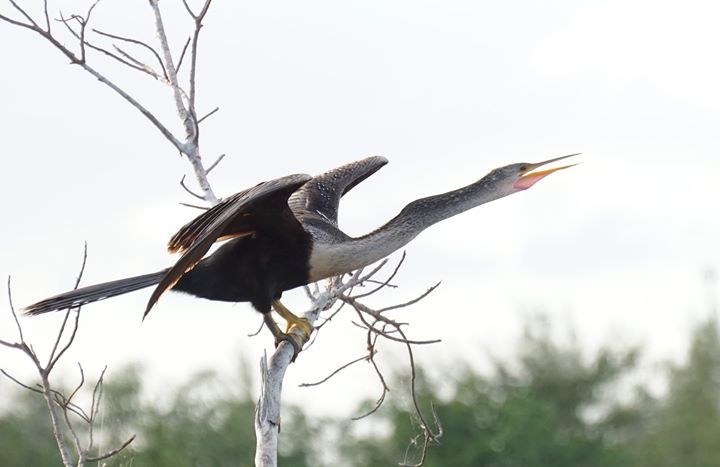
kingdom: Animalia
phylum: Chordata
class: Aves
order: Suliformes
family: Anhingidae
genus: Anhinga
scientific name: Anhinga anhinga
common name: Anhinga
